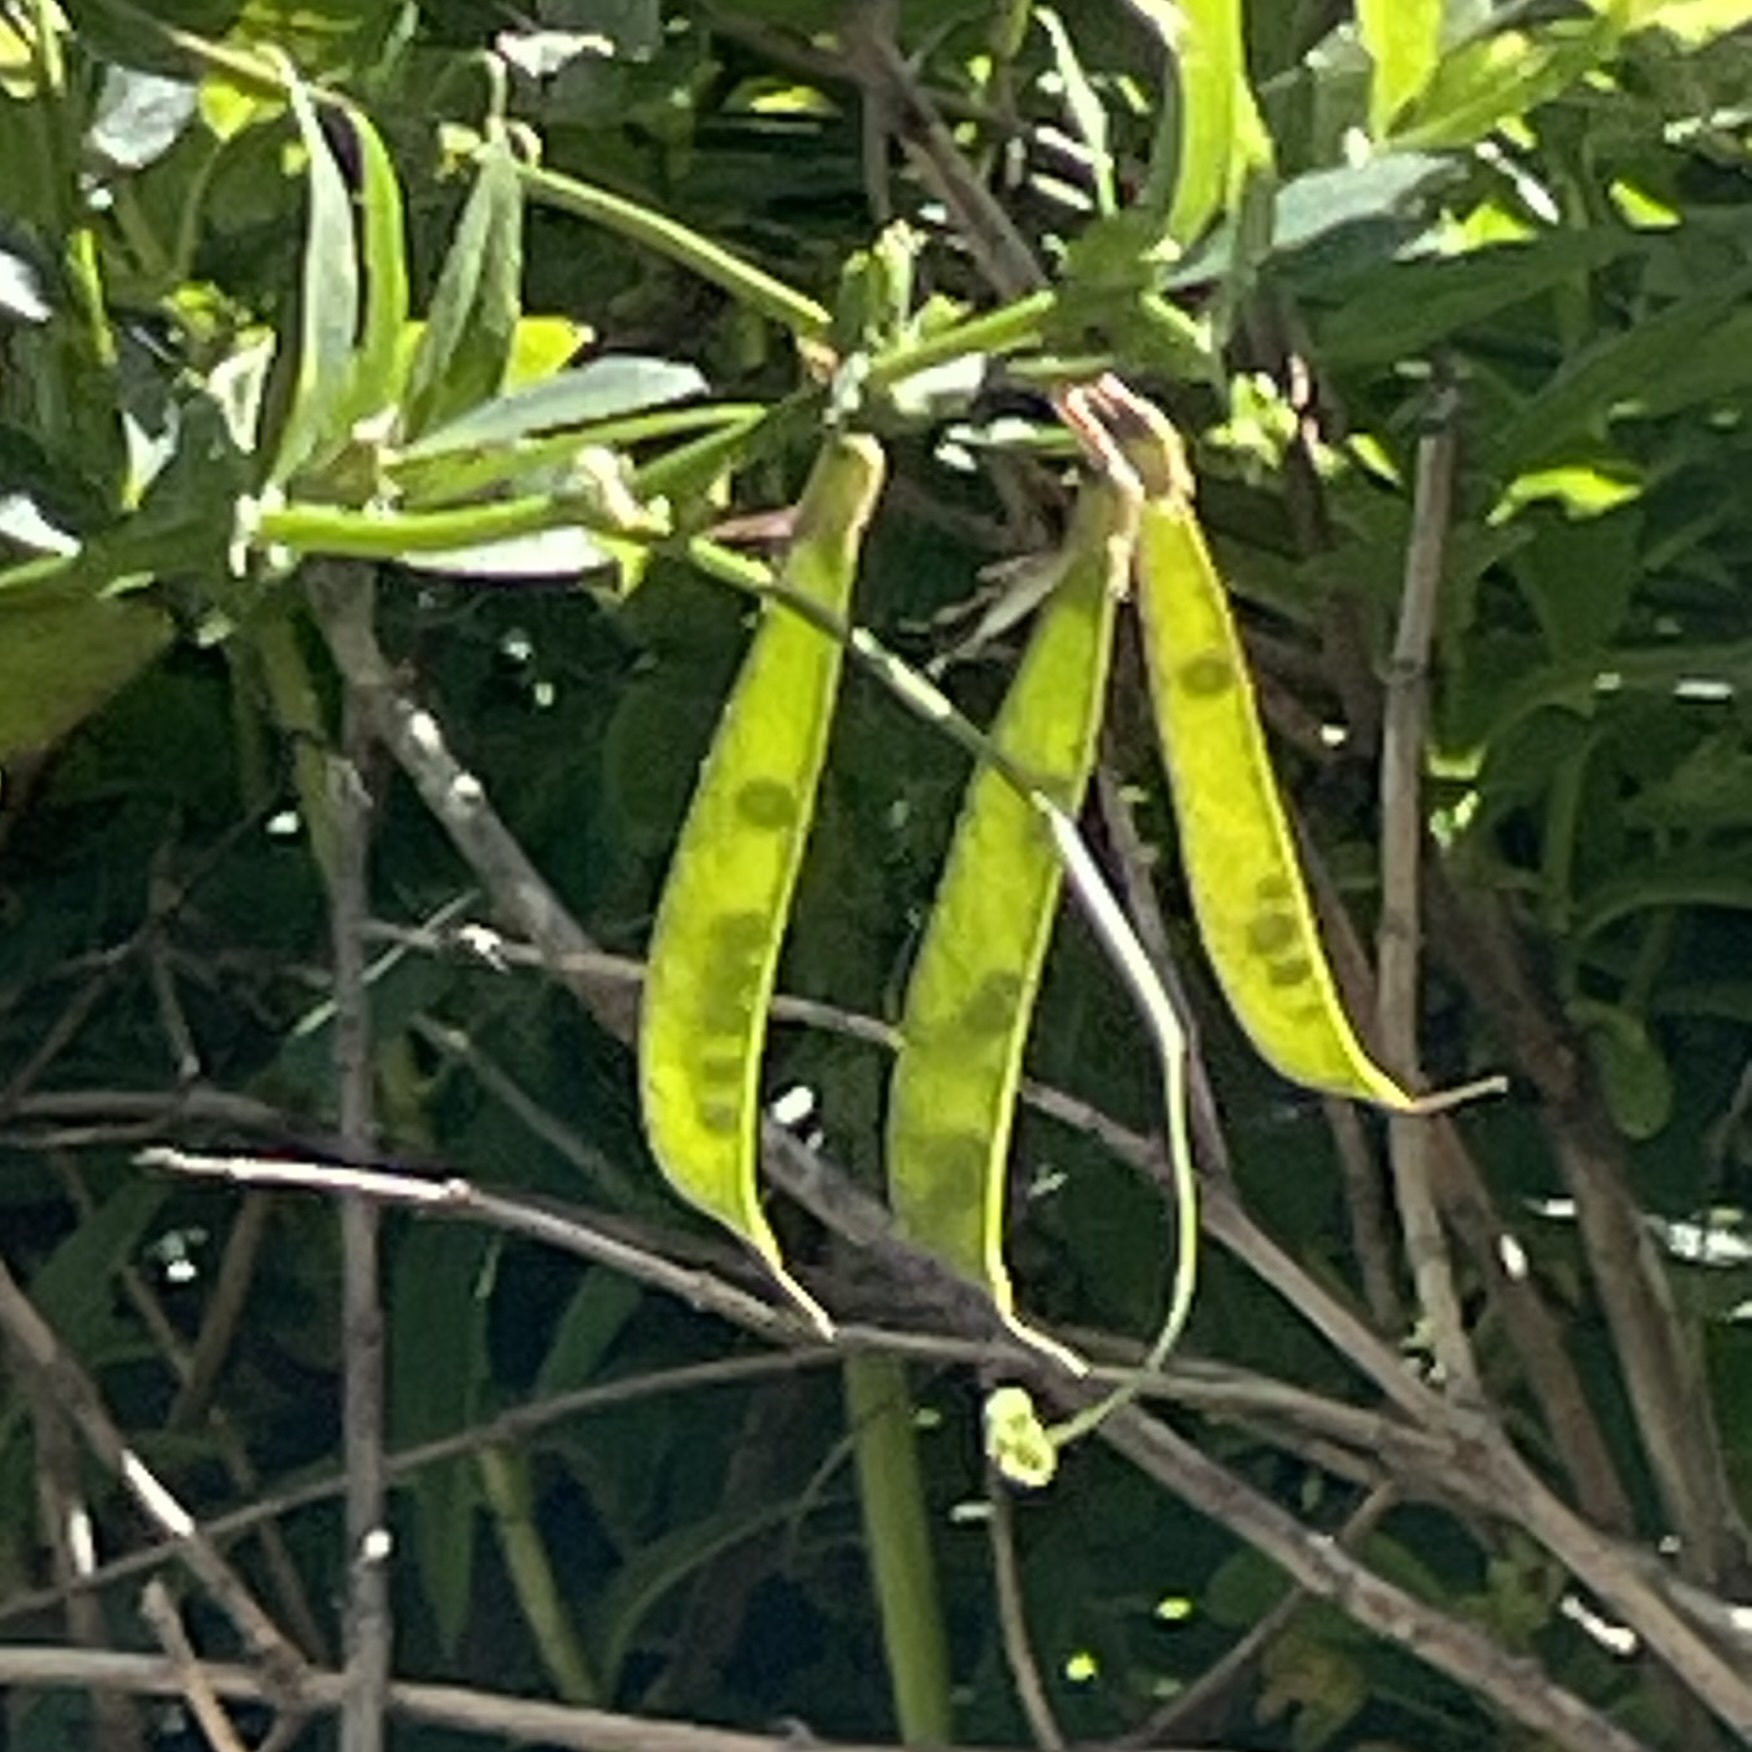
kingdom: Plantae
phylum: Tracheophyta
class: Magnoliopsida
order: Fabales
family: Fabaceae
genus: Lathyrus
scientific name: Lathyrus vestitus
